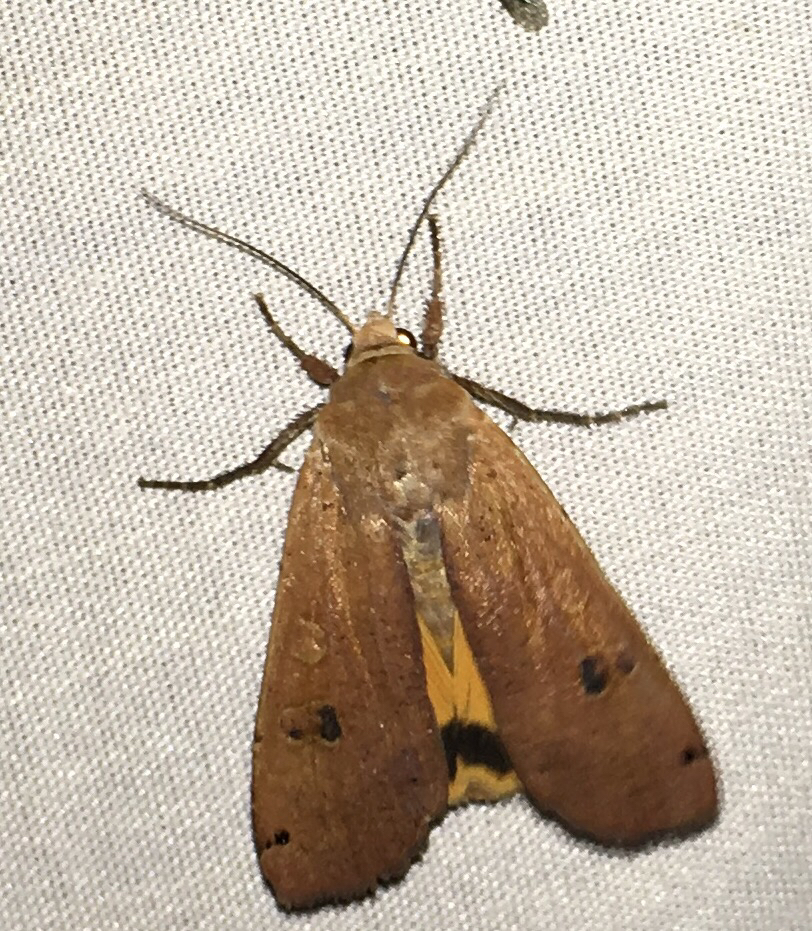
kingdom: Animalia
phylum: Arthropoda
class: Insecta
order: Lepidoptera
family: Noctuidae
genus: Noctua
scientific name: Noctua pronuba
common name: Large yellow underwing
